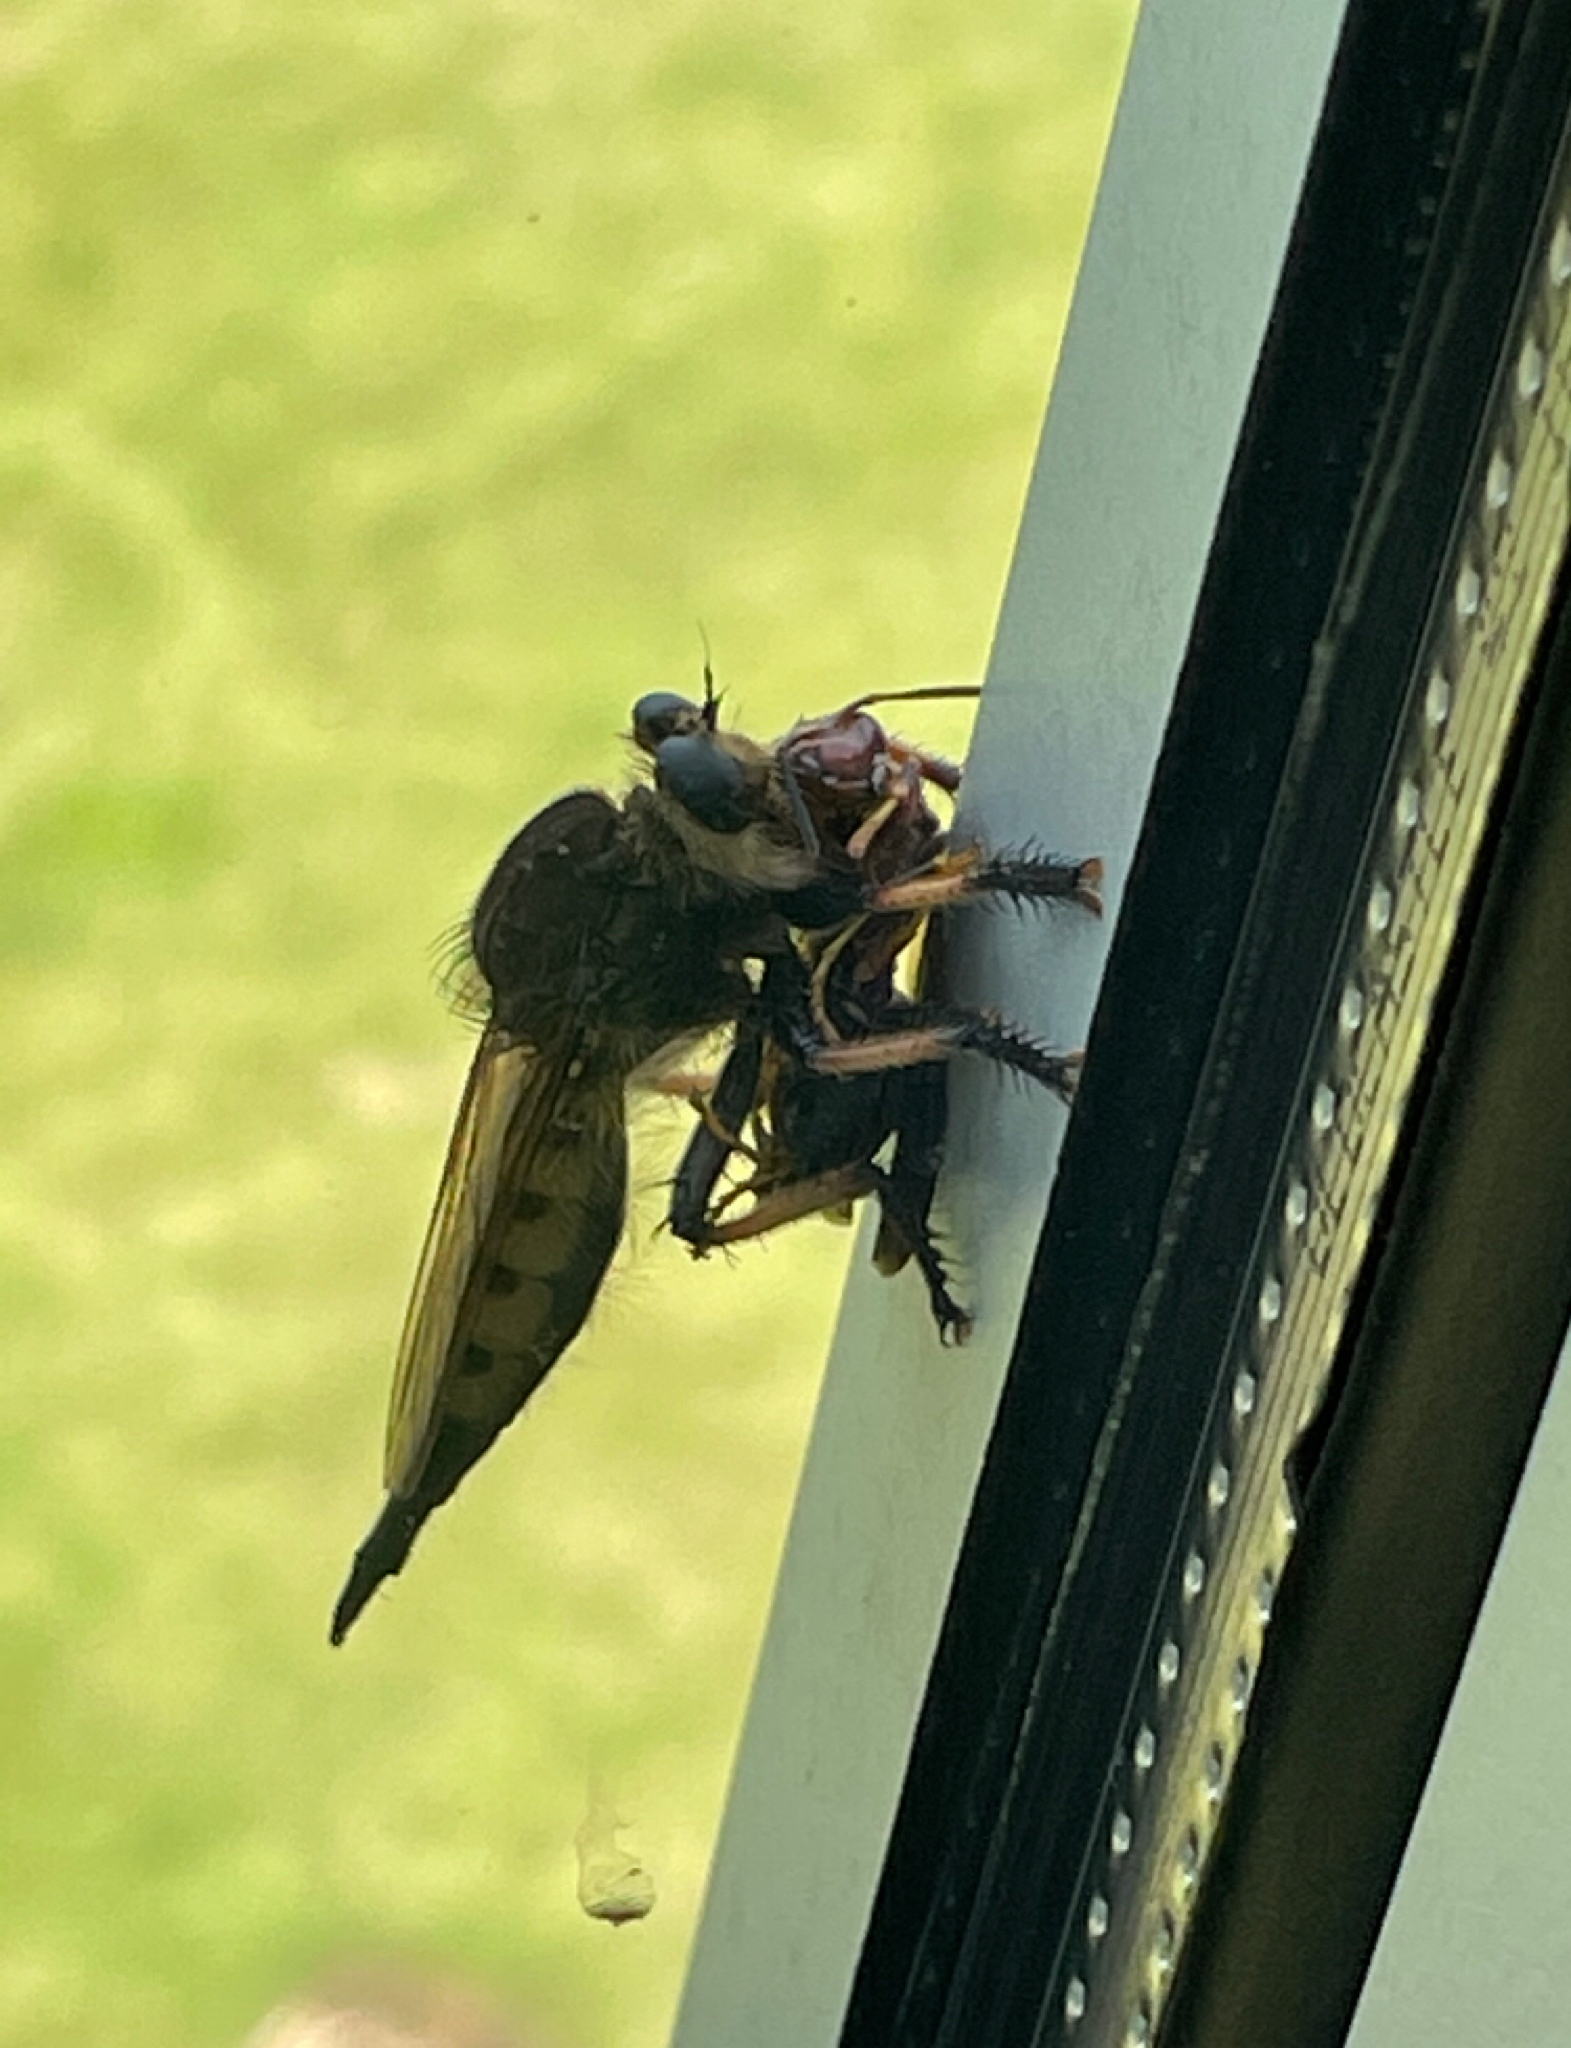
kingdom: Animalia
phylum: Arthropoda
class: Insecta
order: Diptera
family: Asilidae
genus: Promachus
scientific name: Promachus rufipes
